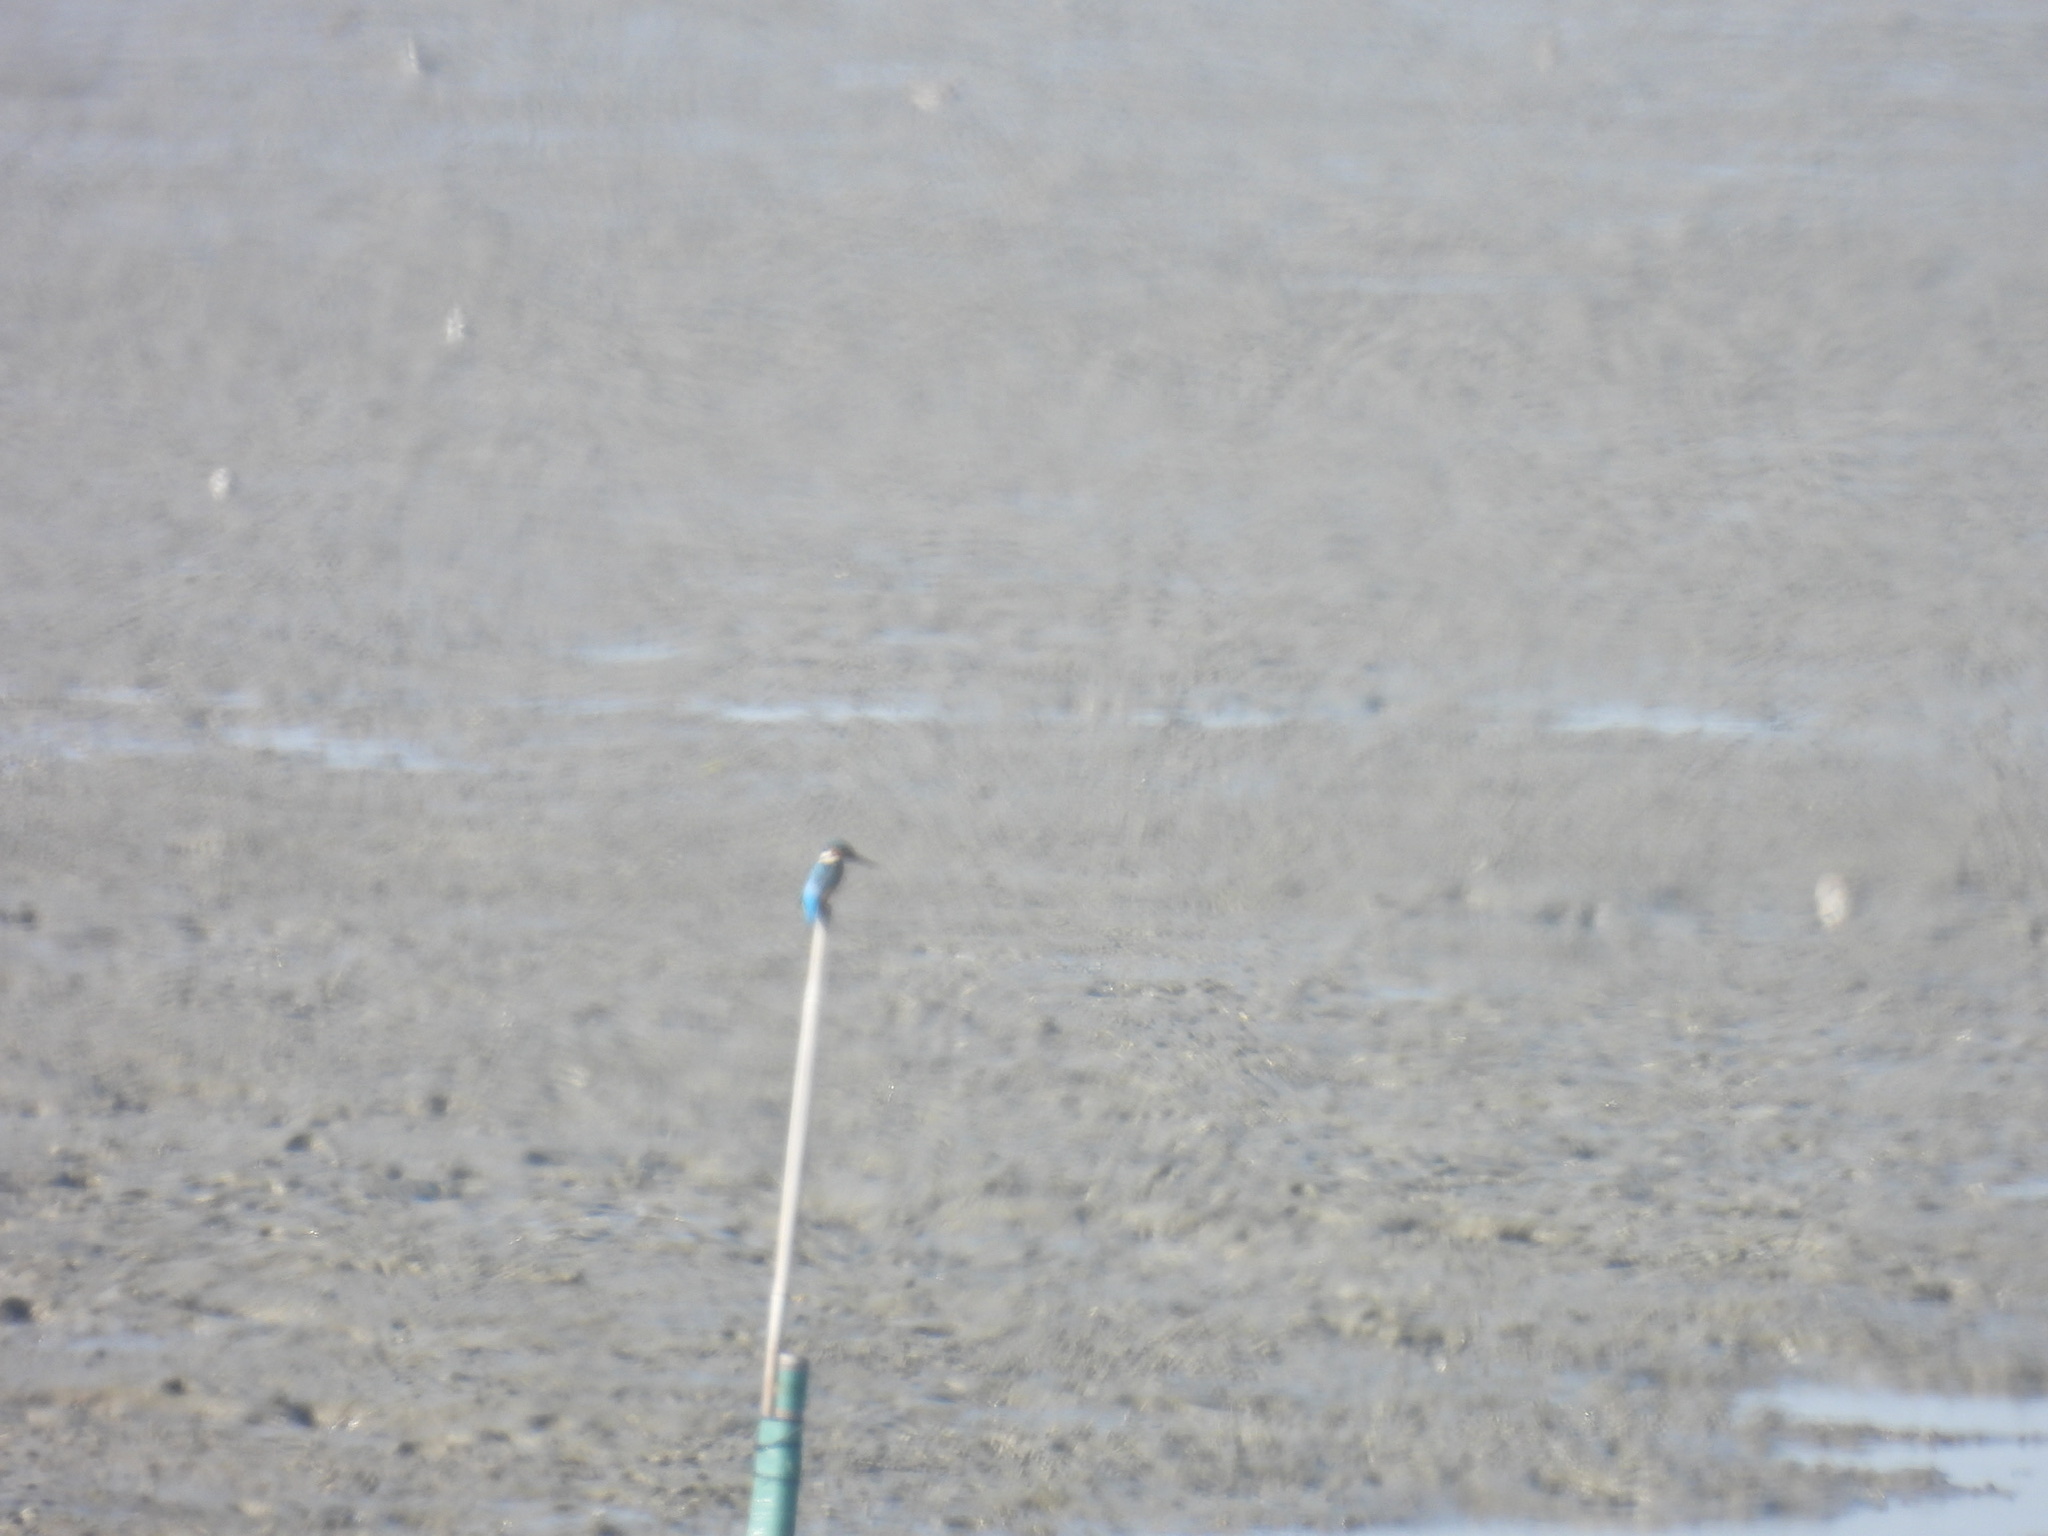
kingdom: Animalia
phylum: Chordata
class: Aves
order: Coraciiformes
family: Alcedinidae
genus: Alcedo
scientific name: Alcedo atthis
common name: Common kingfisher
